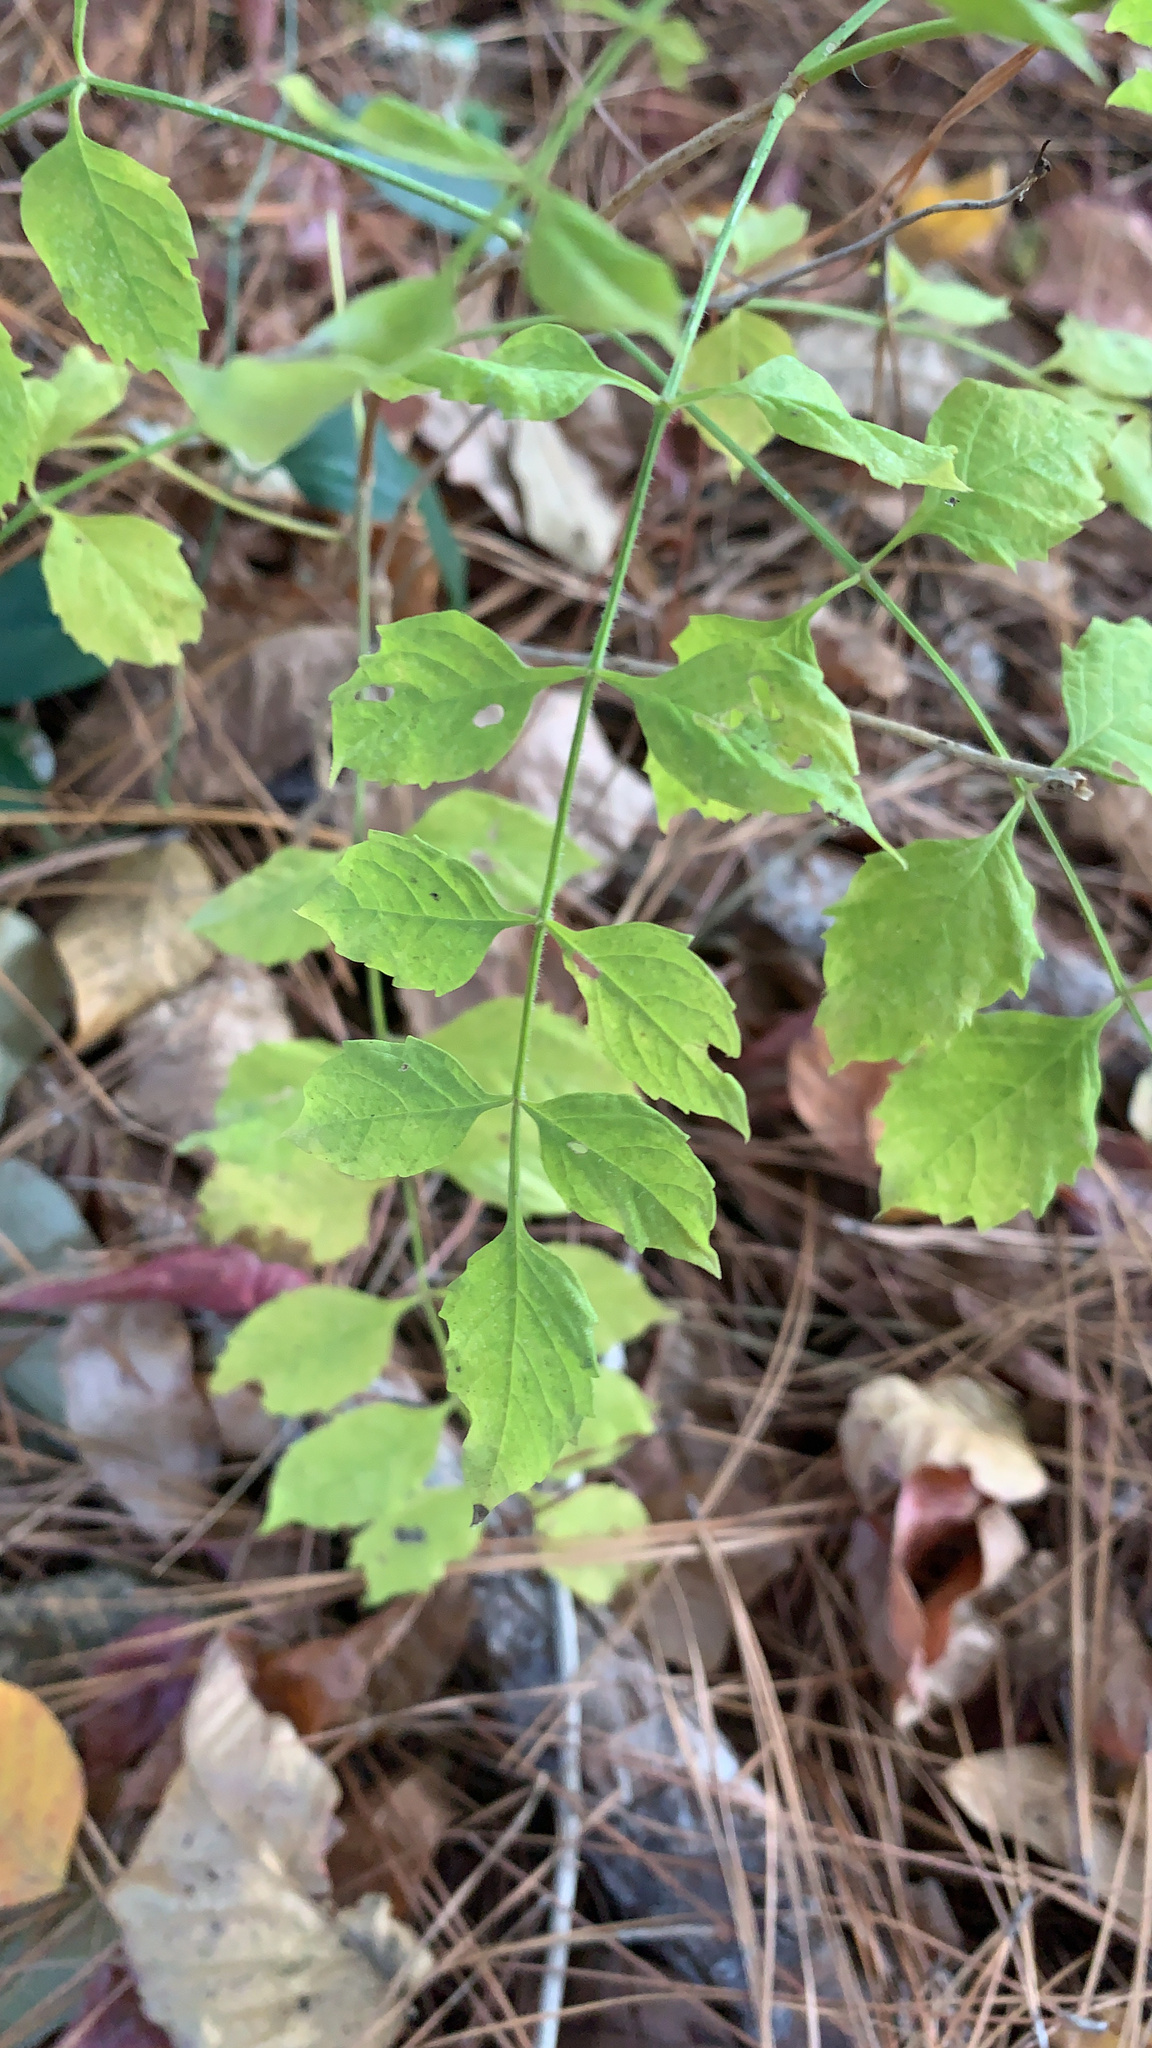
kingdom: Plantae
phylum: Tracheophyta
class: Magnoliopsida
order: Lamiales
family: Bignoniaceae
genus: Campsis
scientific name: Campsis radicans
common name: Trumpet-creeper
